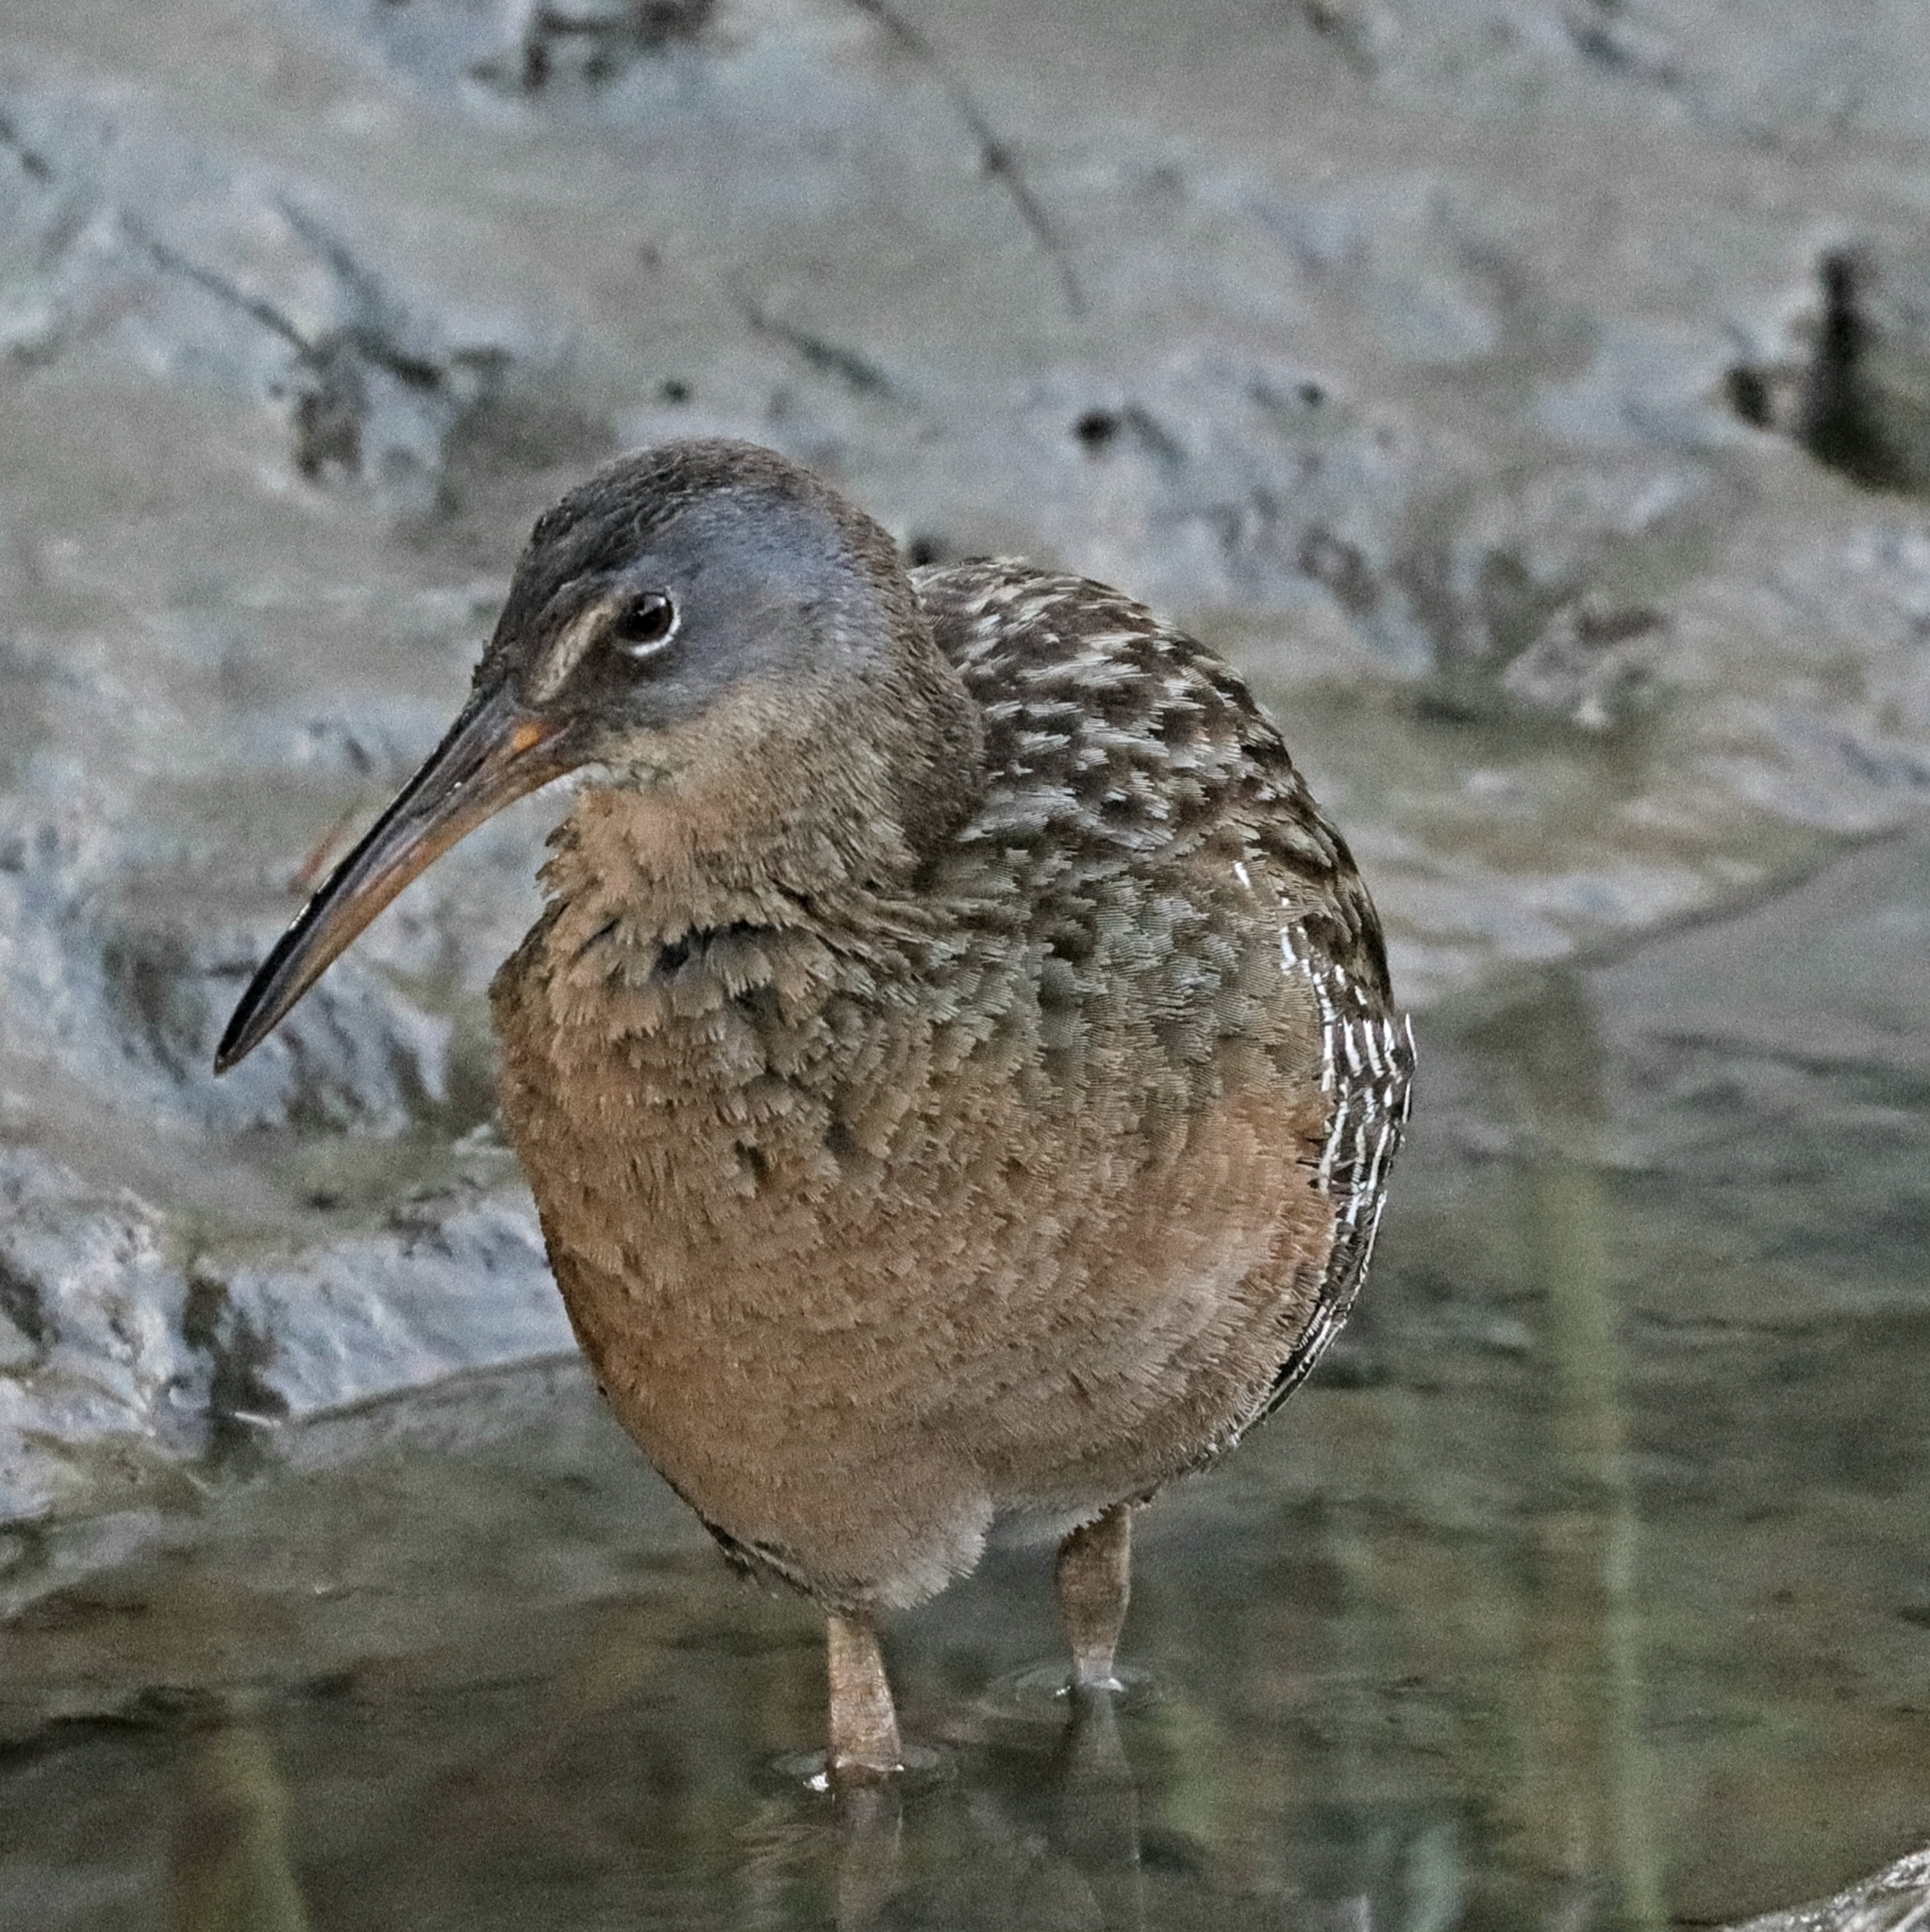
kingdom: Animalia
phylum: Chordata
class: Aves
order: Gruiformes
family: Rallidae
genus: Rallus
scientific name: Rallus crepitans
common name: Clapper rail
